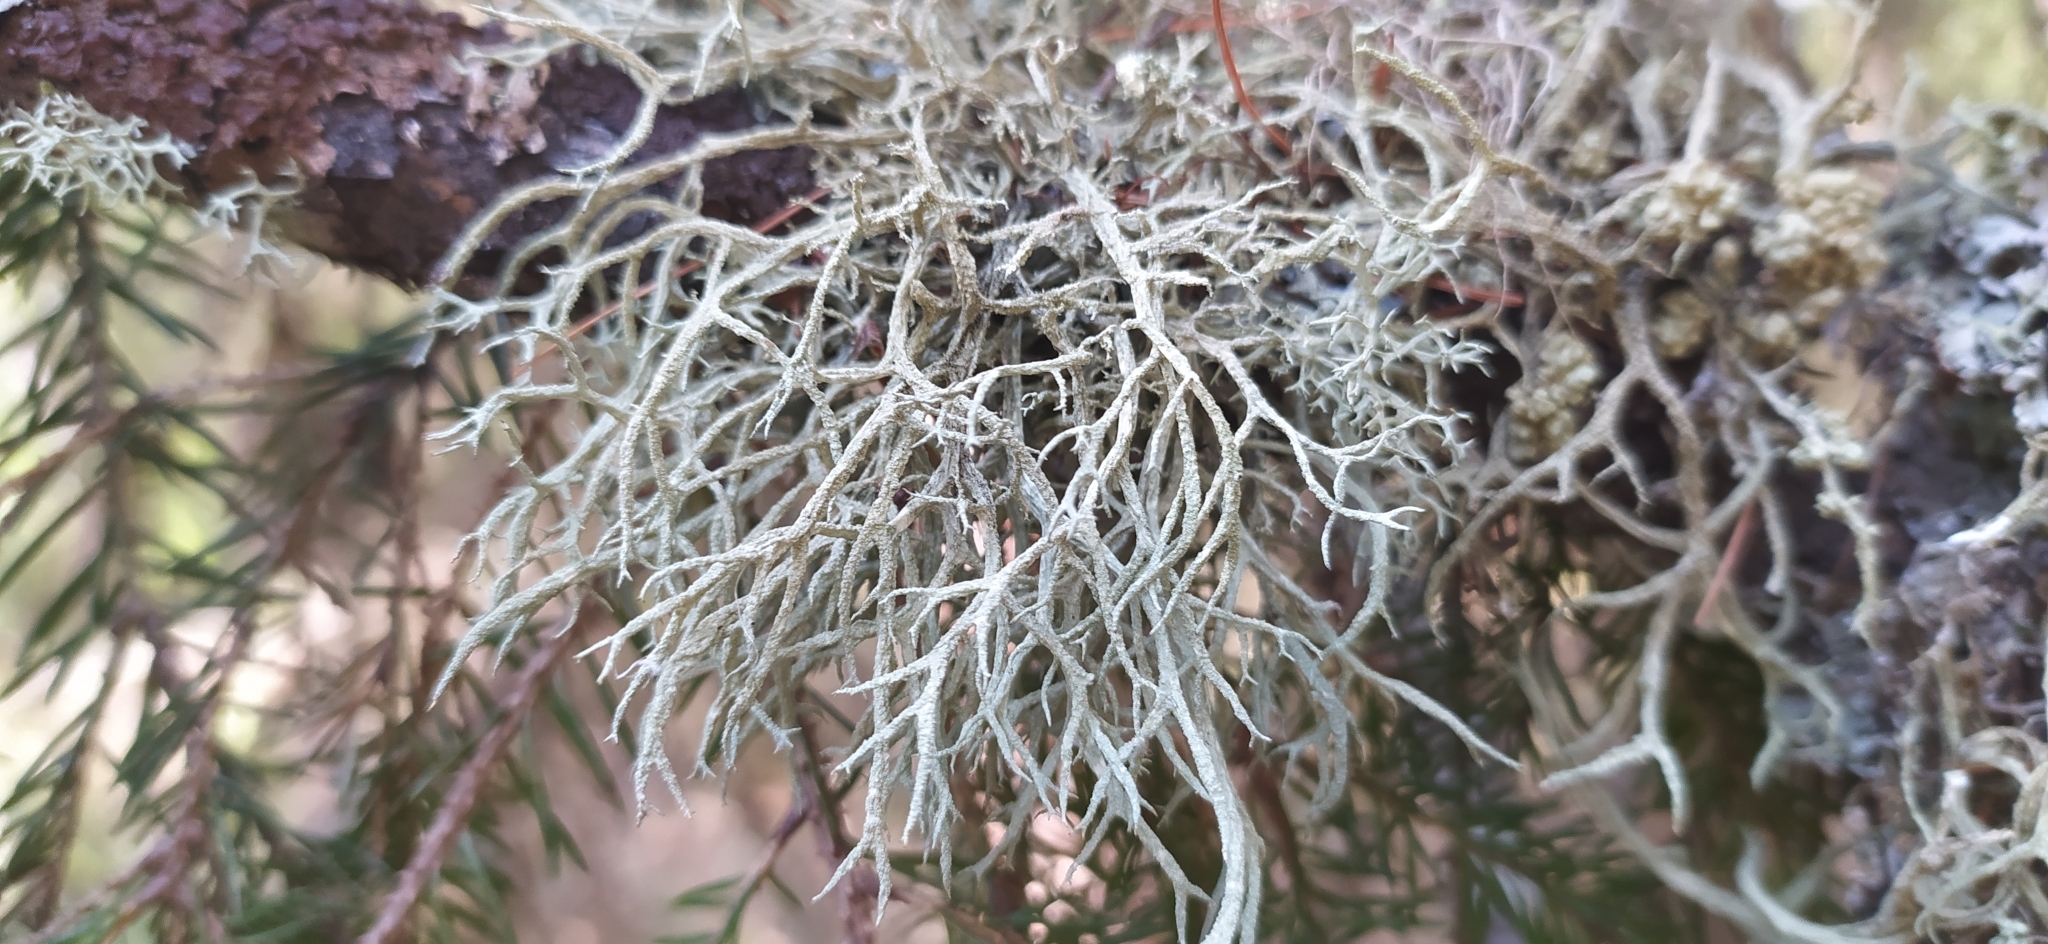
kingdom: Fungi
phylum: Ascomycota
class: Lecanoromycetes
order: Lecanorales
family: Parmeliaceae
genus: Evernia
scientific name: Evernia mesomorpha
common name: Boreal oak moss lichen
